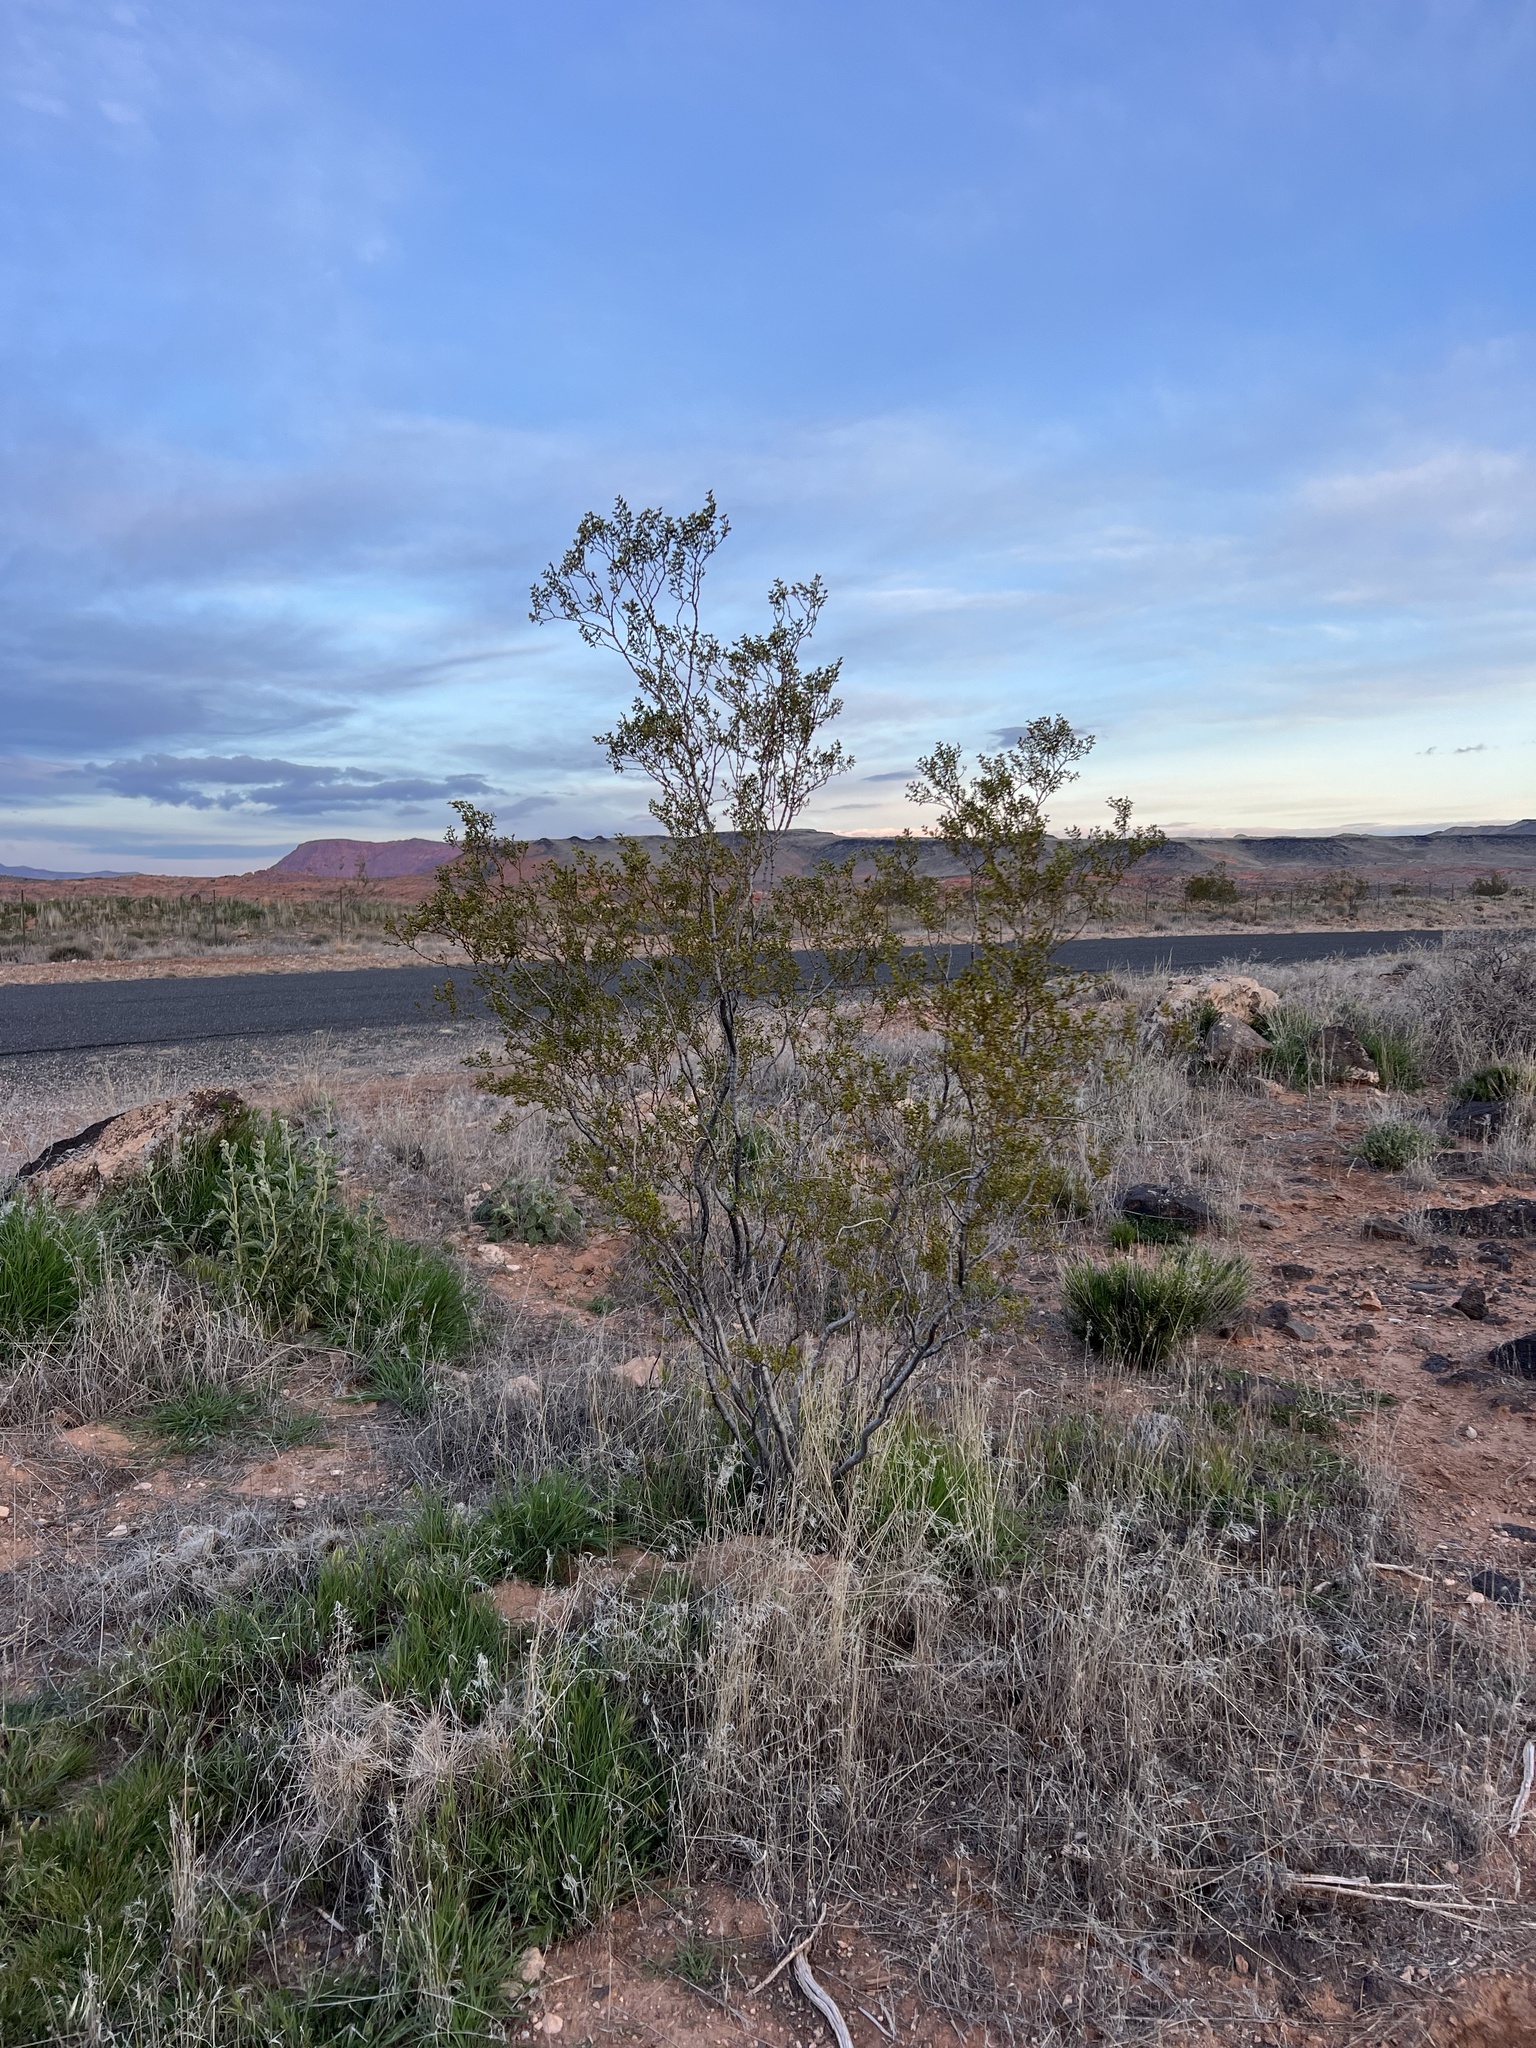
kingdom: Plantae
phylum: Tracheophyta
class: Magnoliopsida
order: Zygophyllales
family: Zygophyllaceae
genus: Larrea
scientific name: Larrea tridentata
